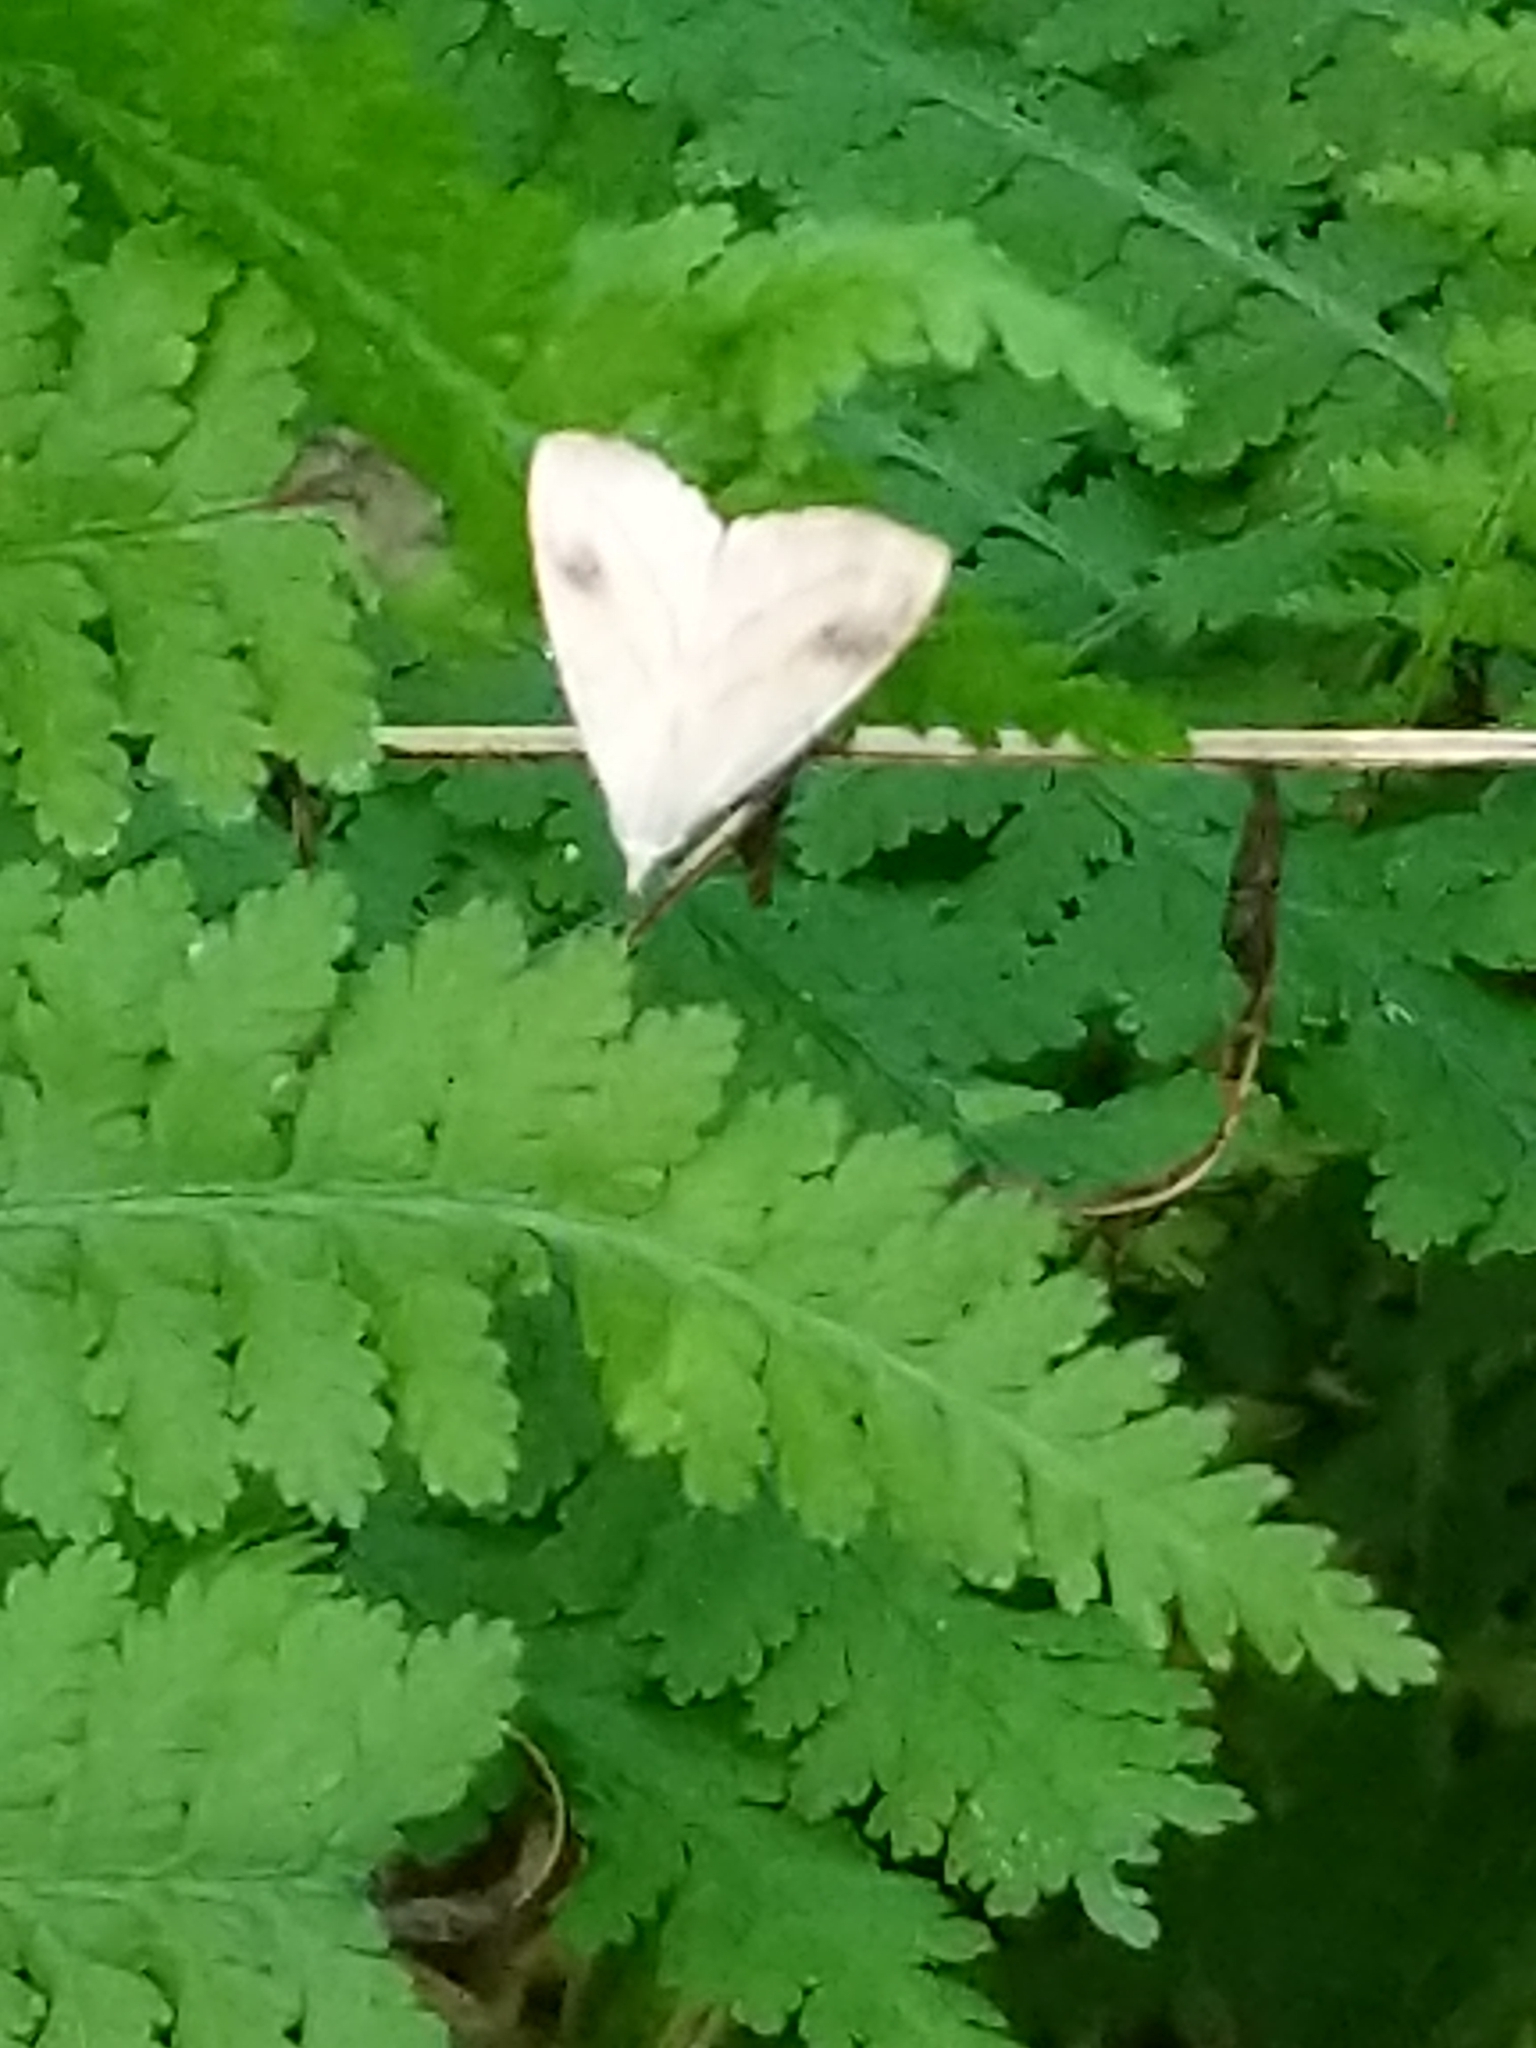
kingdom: Animalia
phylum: Arthropoda
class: Insecta
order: Lepidoptera
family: Erebidae
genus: Rivula
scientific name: Rivula propinqualis
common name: Spotted grass moth
